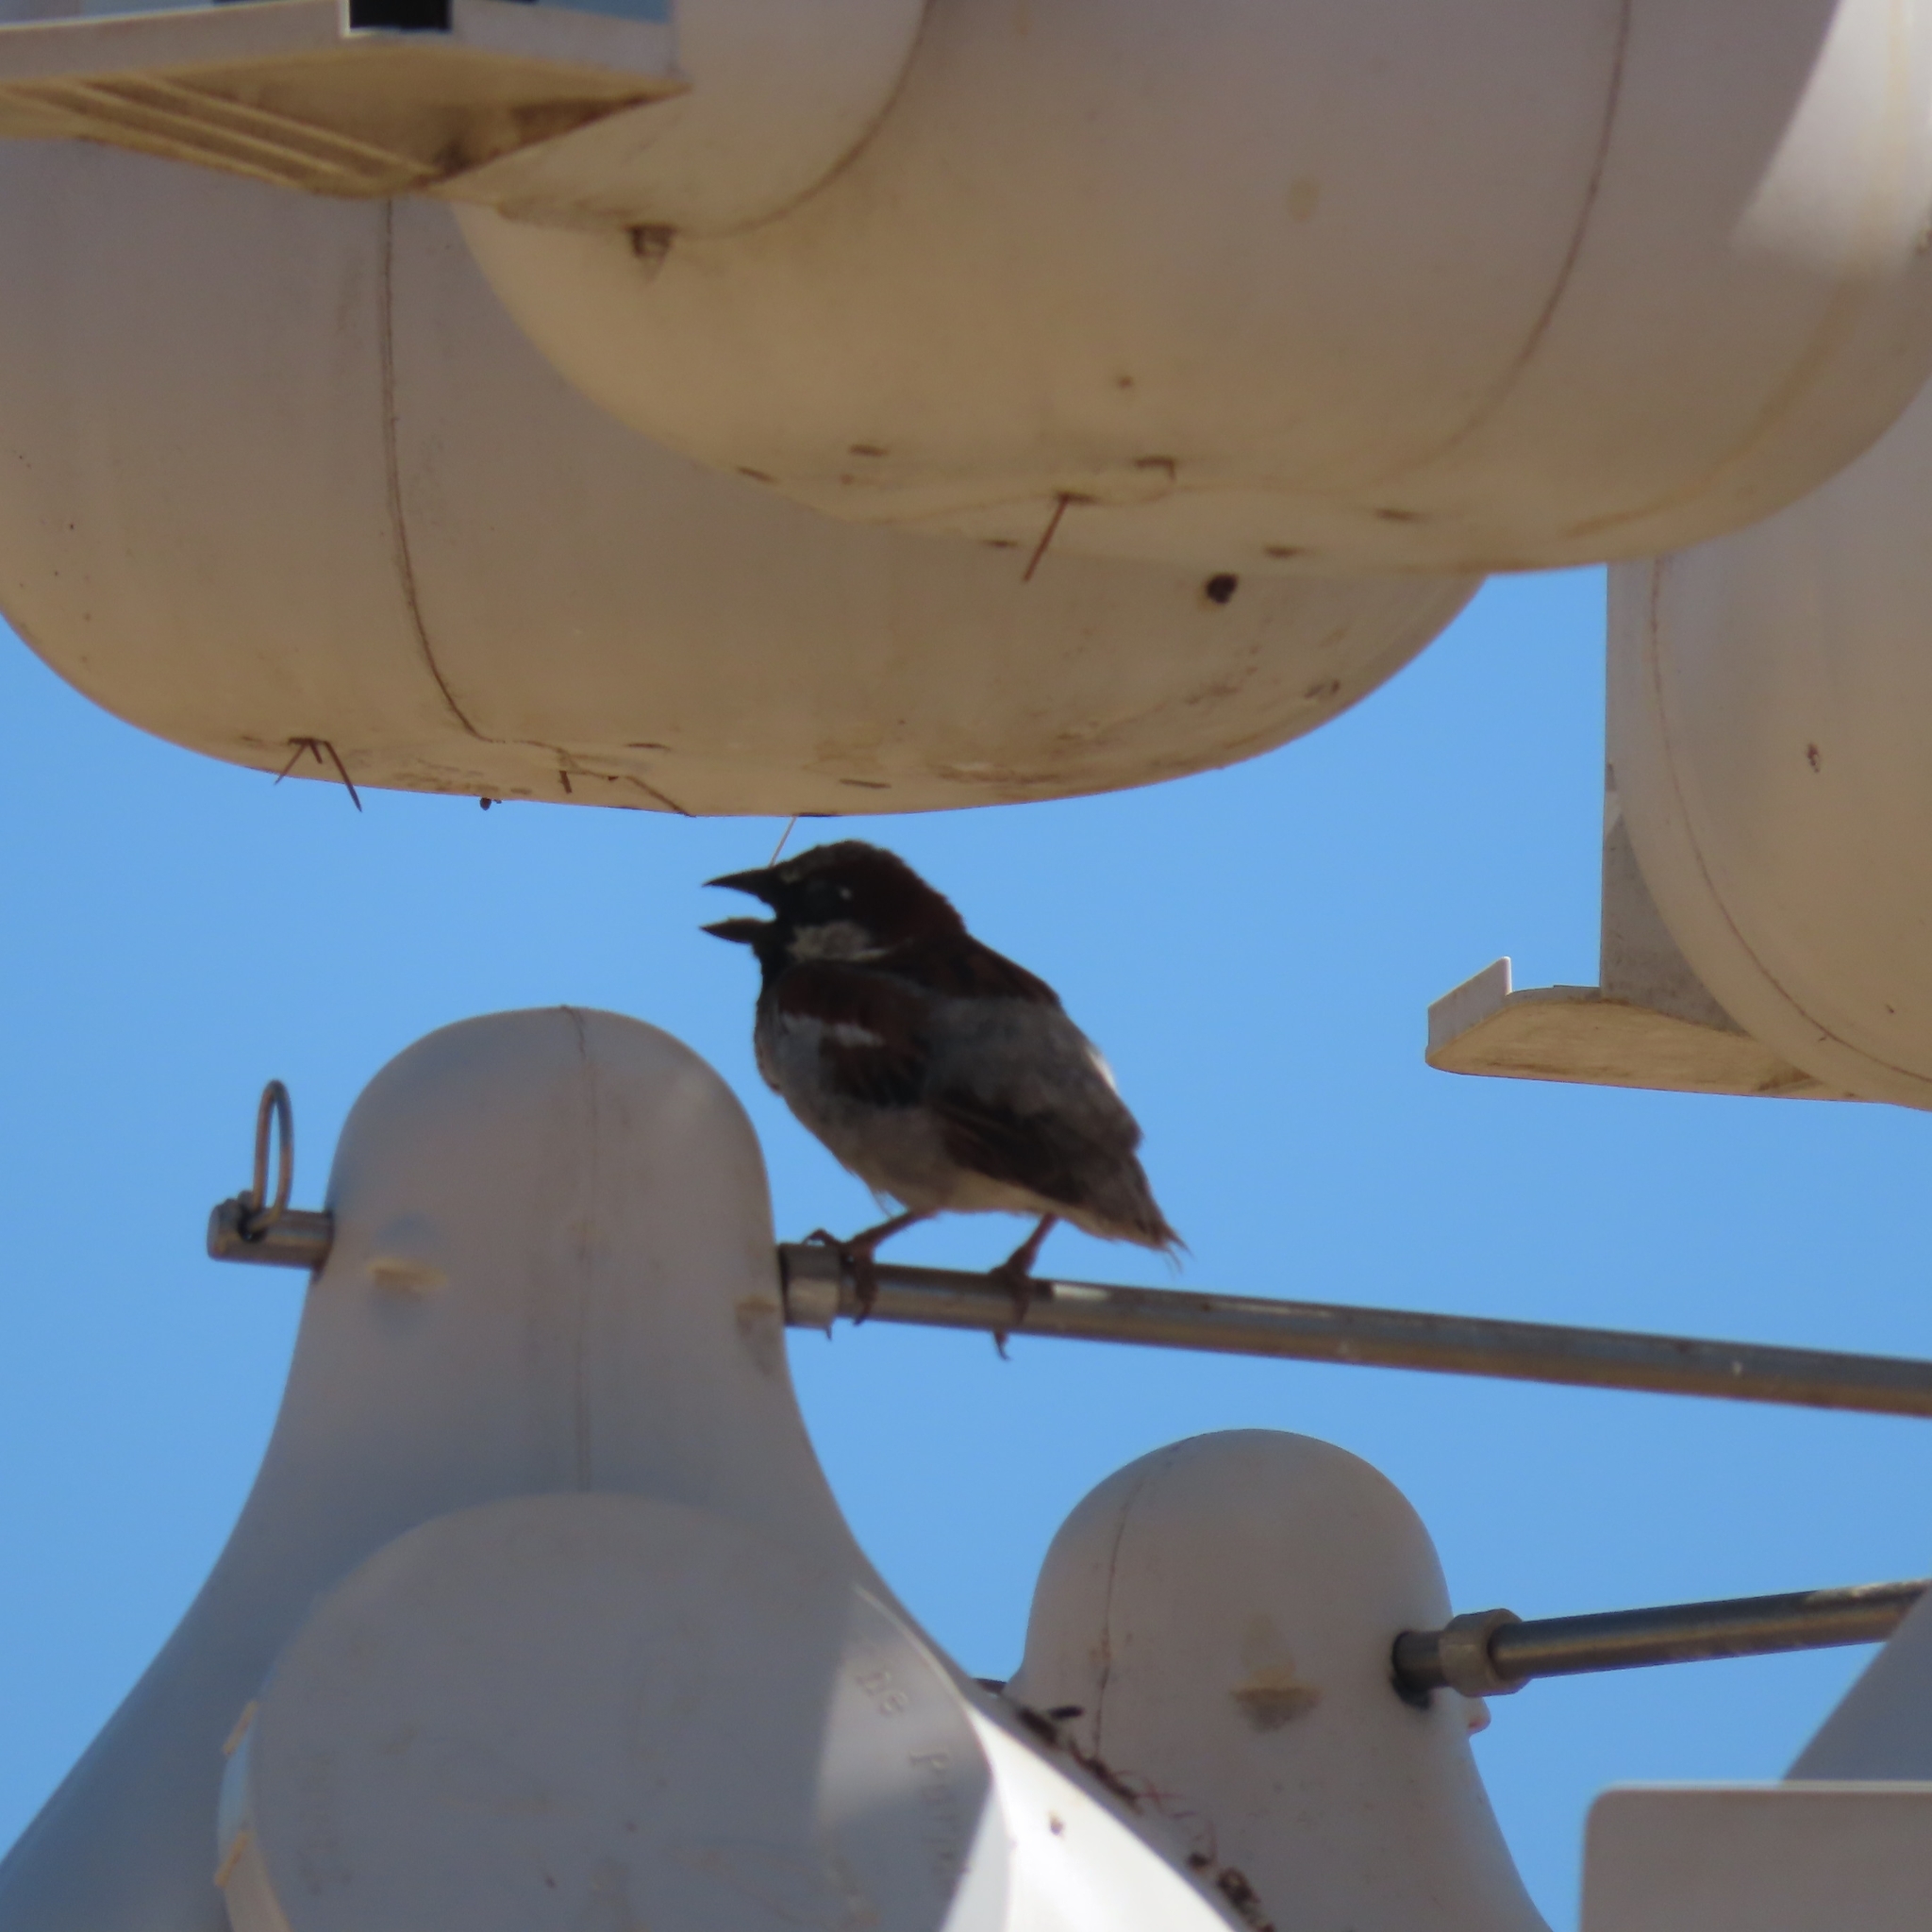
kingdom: Animalia
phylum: Chordata
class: Aves
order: Passeriformes
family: Passeridae
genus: Passer
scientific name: Passer domesticus
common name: House sparrow
